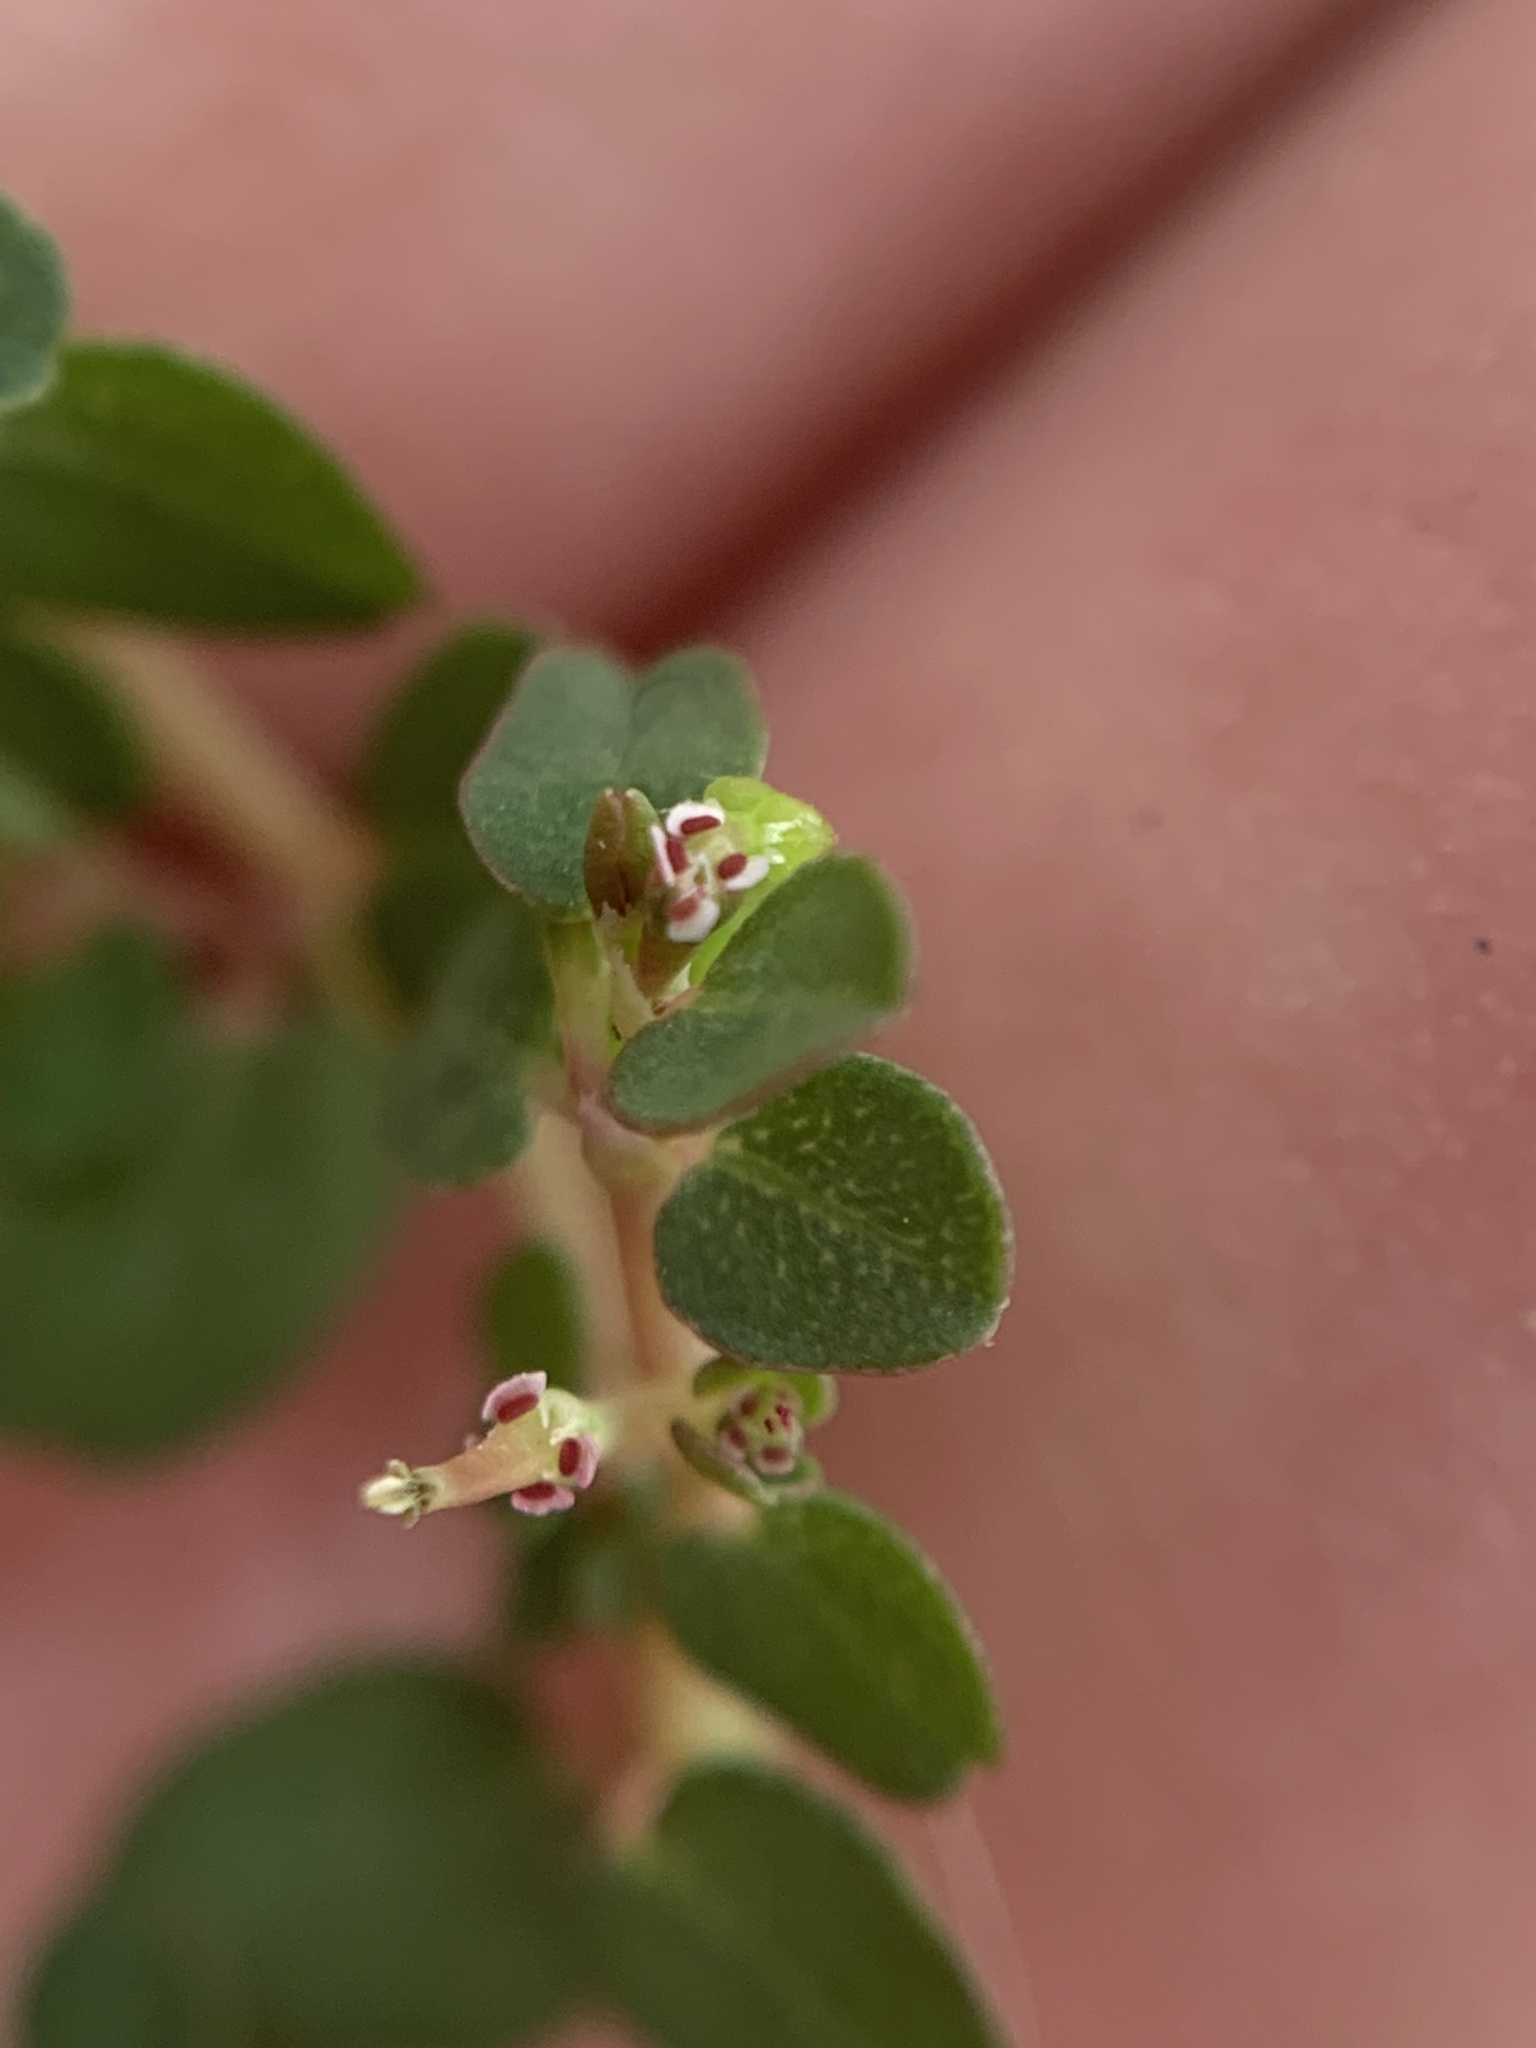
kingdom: Plantae
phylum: Tracheophyta
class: Magnoliopsida
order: Malpighiales
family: Euphorbiaceae
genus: Euphorbia
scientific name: Euphorbia serpens
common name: Matted sandmat
